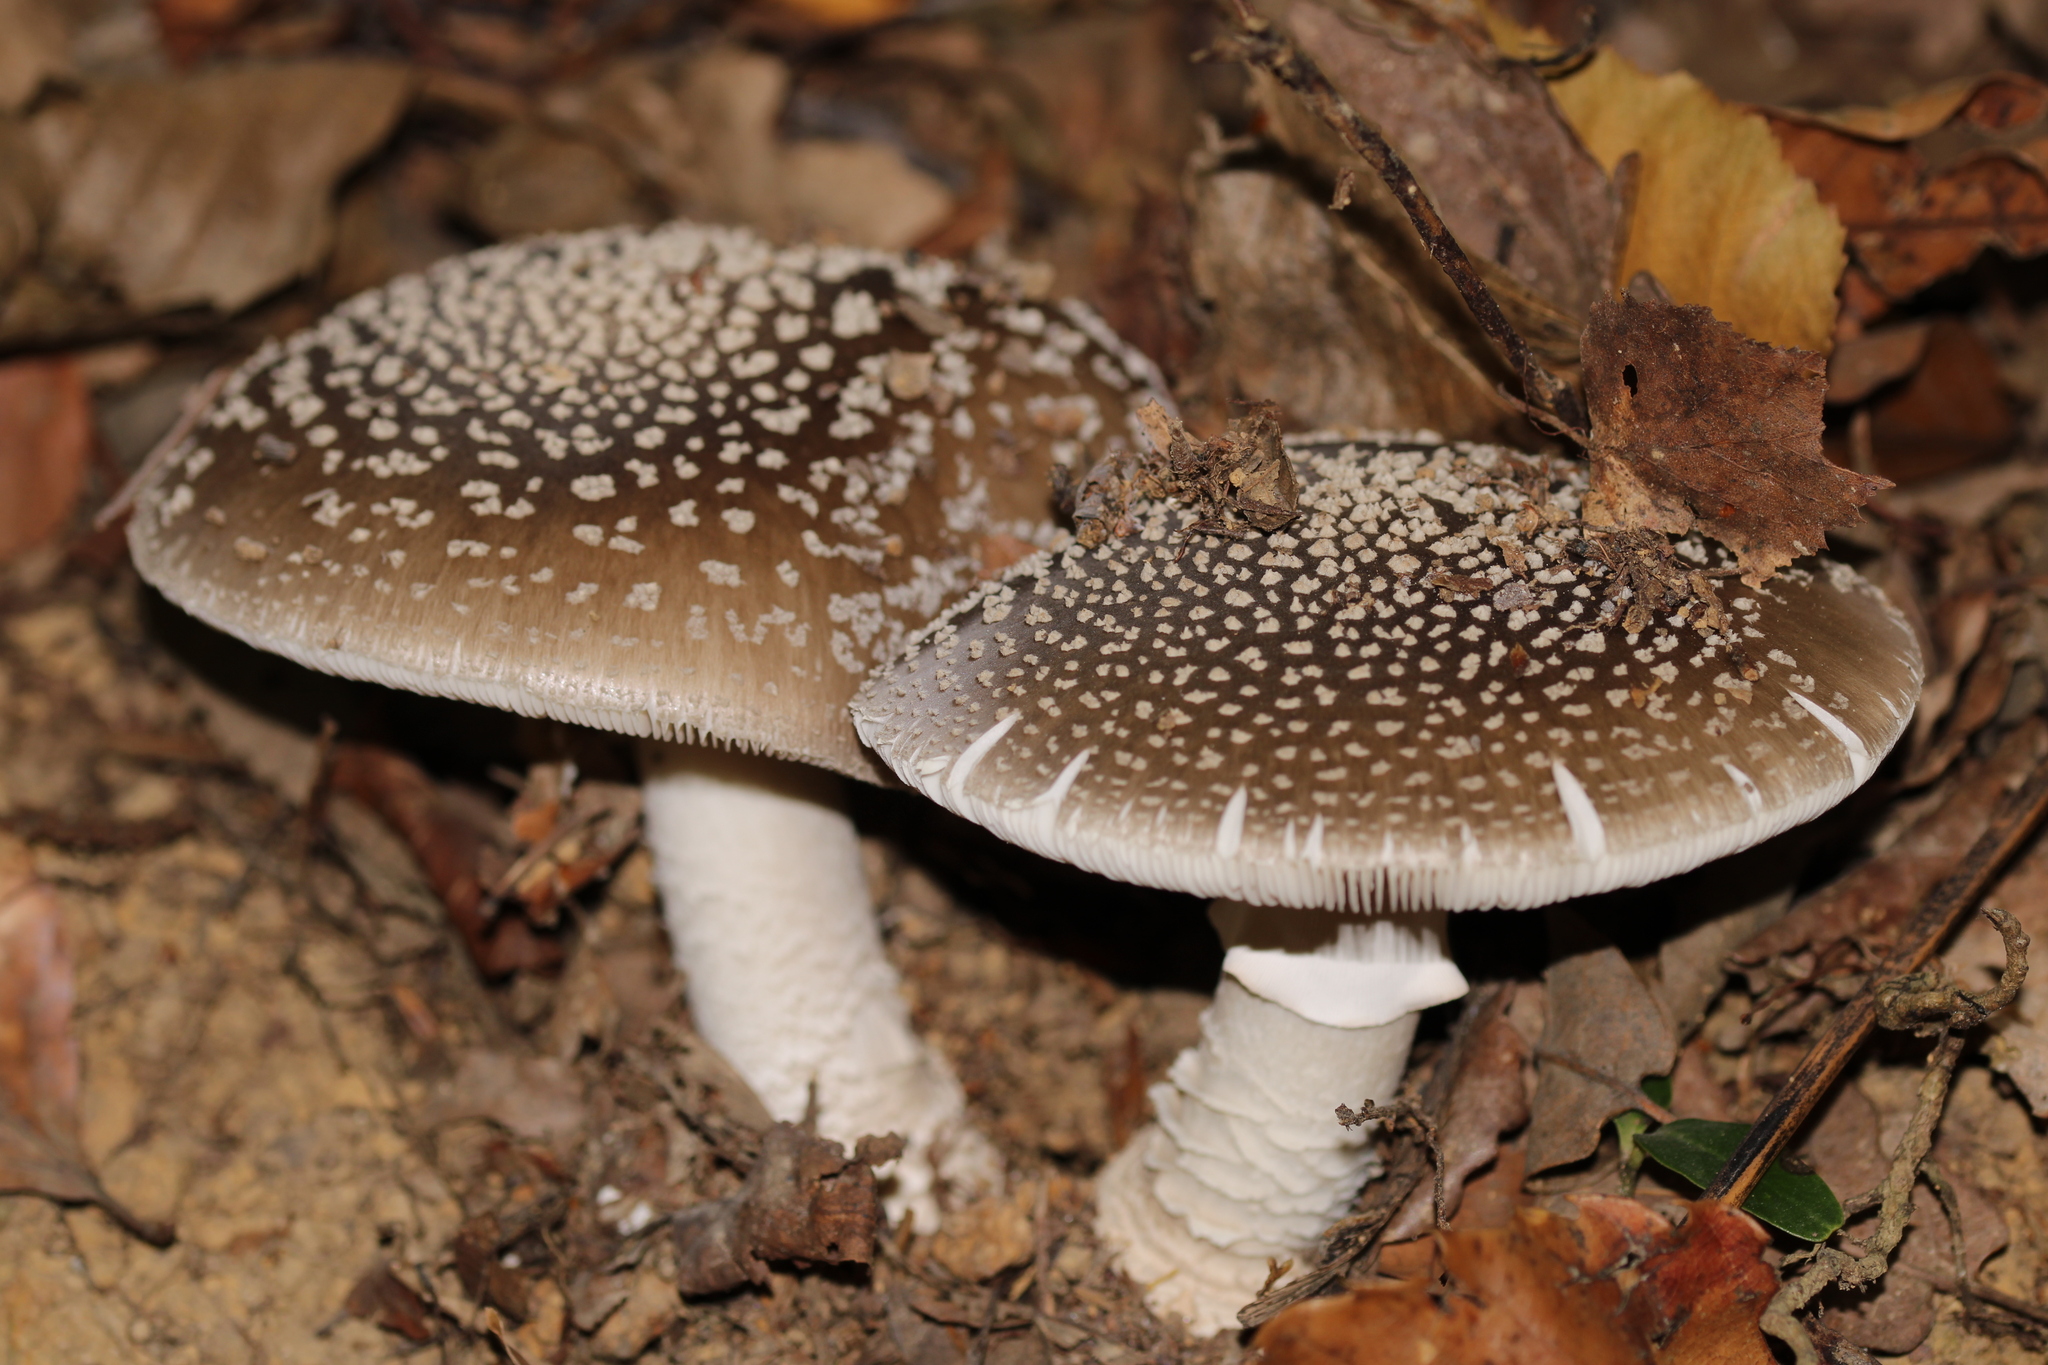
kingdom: Fungi
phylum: Basidiomycota
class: Agaricomycetes
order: Agaricales
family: Amanitaceae
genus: Amanita
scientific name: Amanita excelsa
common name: European false blusher
